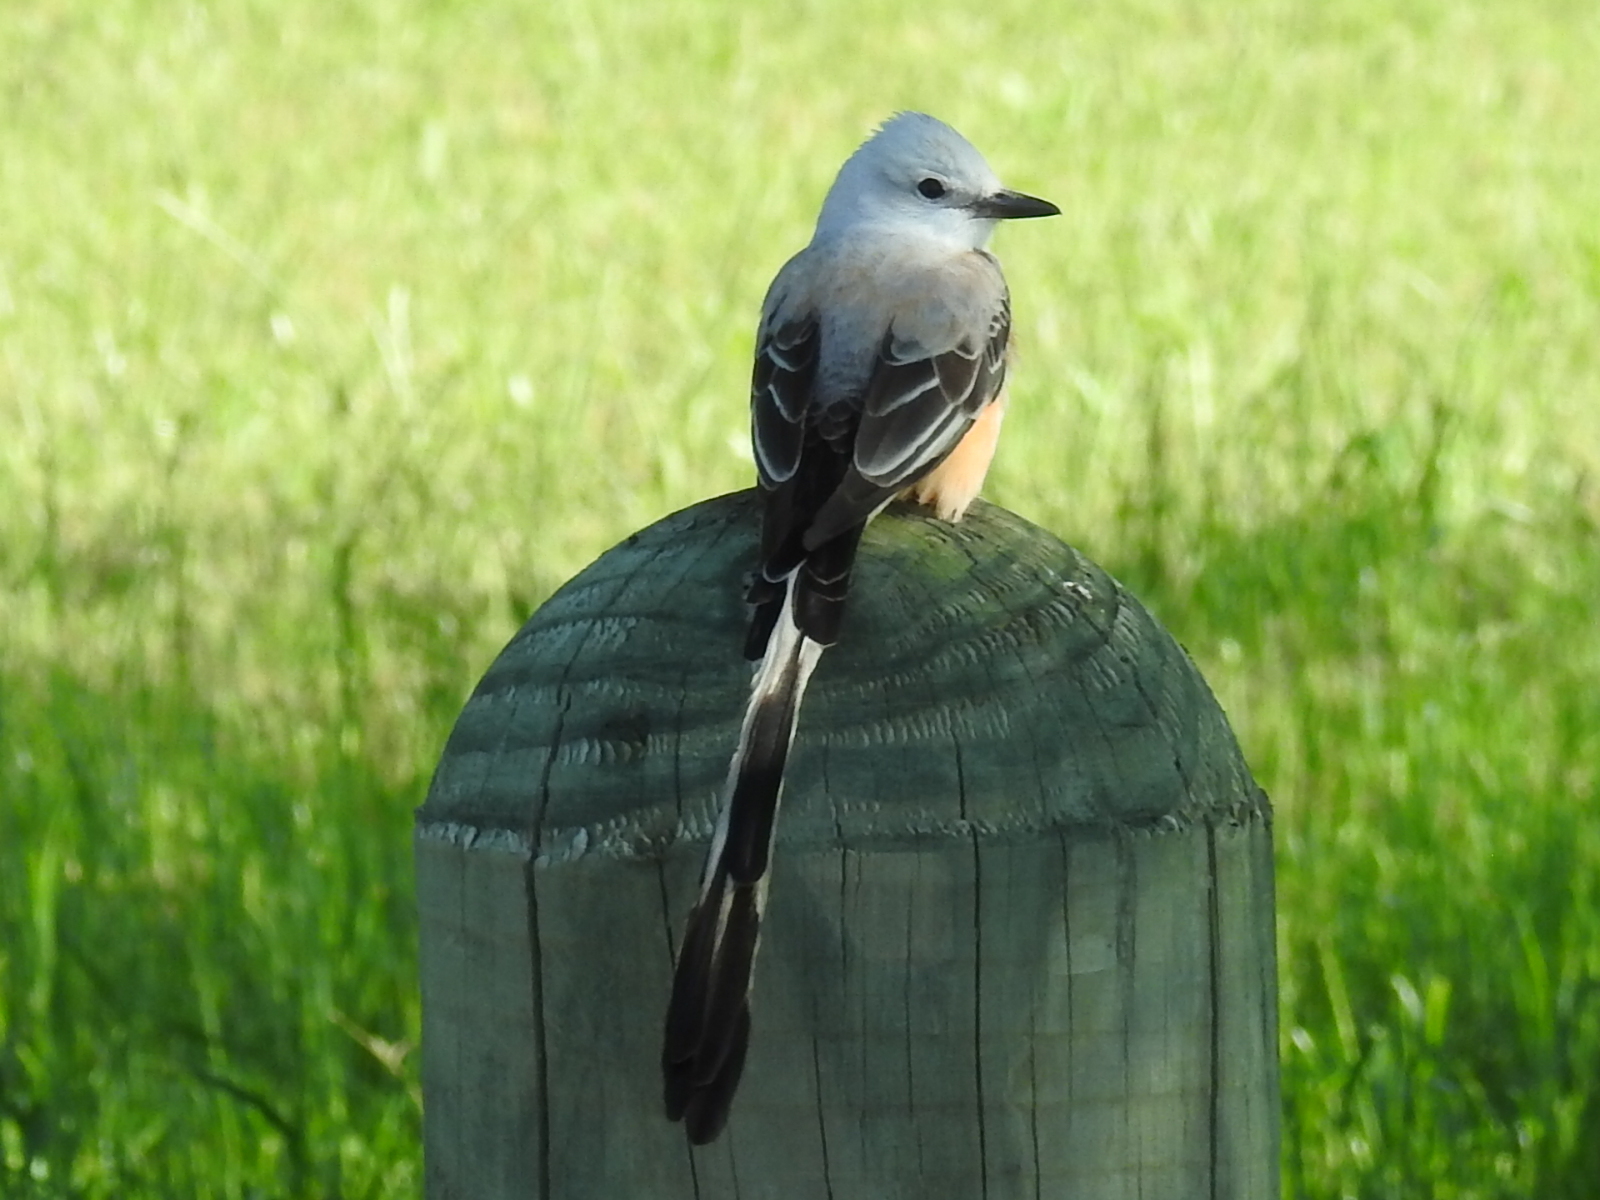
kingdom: Animalia
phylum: Chordata
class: Aves
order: Passeriformes
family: Tyrannidae
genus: Tyrannus
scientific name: Tyrannus forficatus
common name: Scissor-tailed flycatcher
